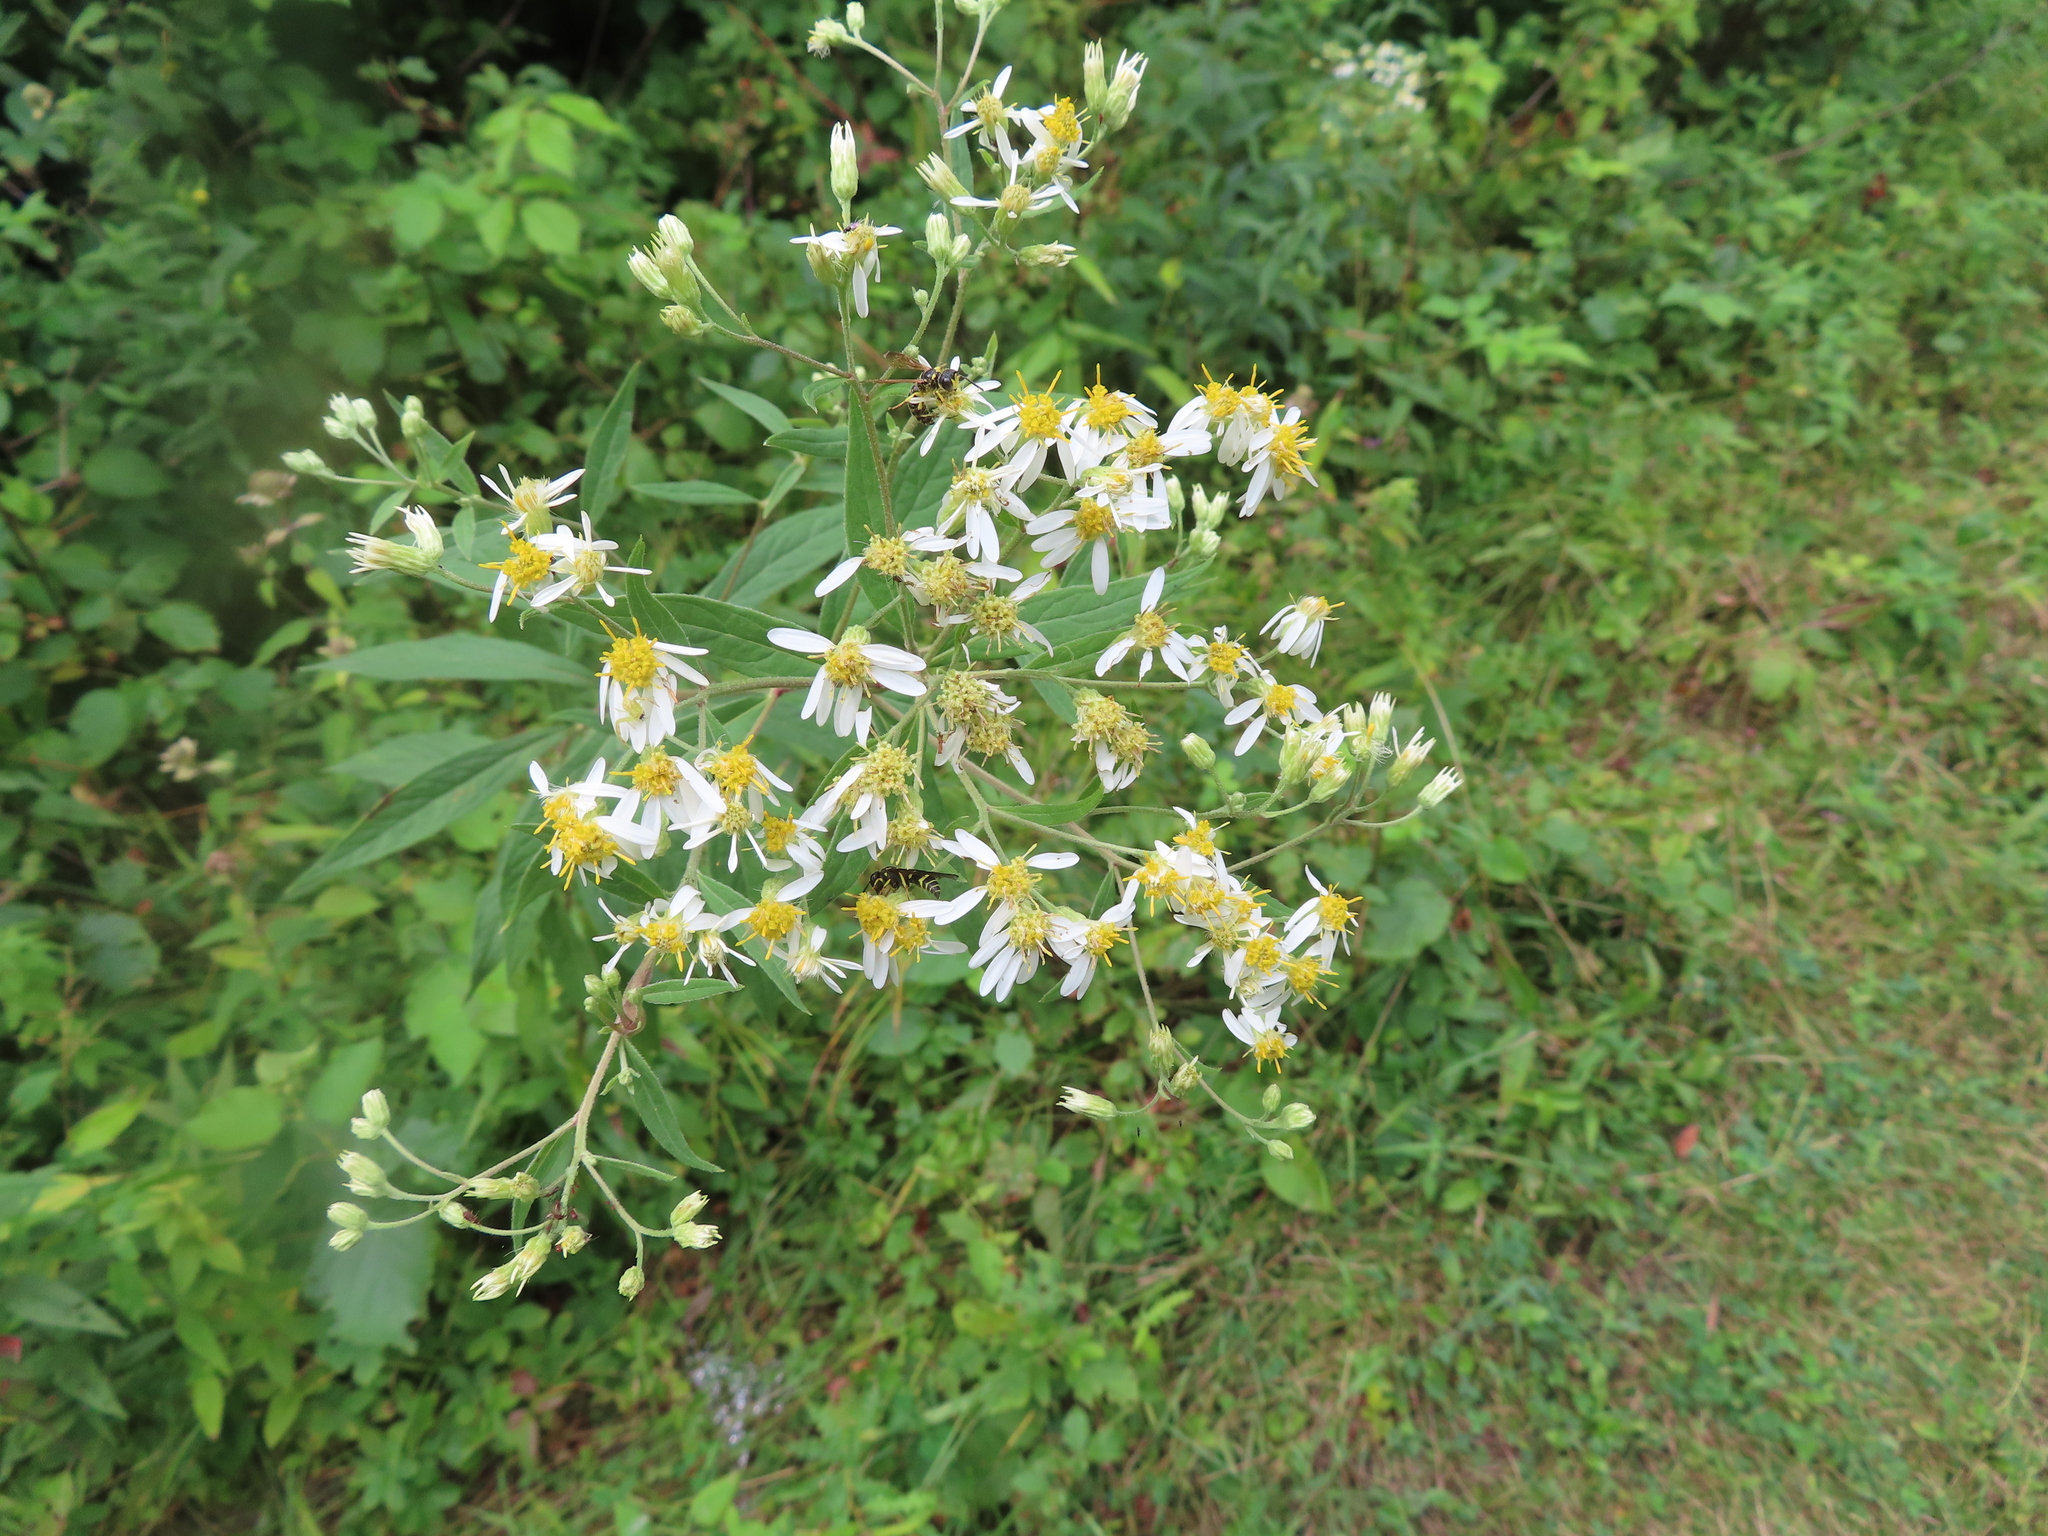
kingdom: Plantae
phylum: Tracheophyta
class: Magnoliopsida
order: Asterales
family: Asteraceae
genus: Doellingeria
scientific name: Doellingeria umbellata
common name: Flat-top white aster
